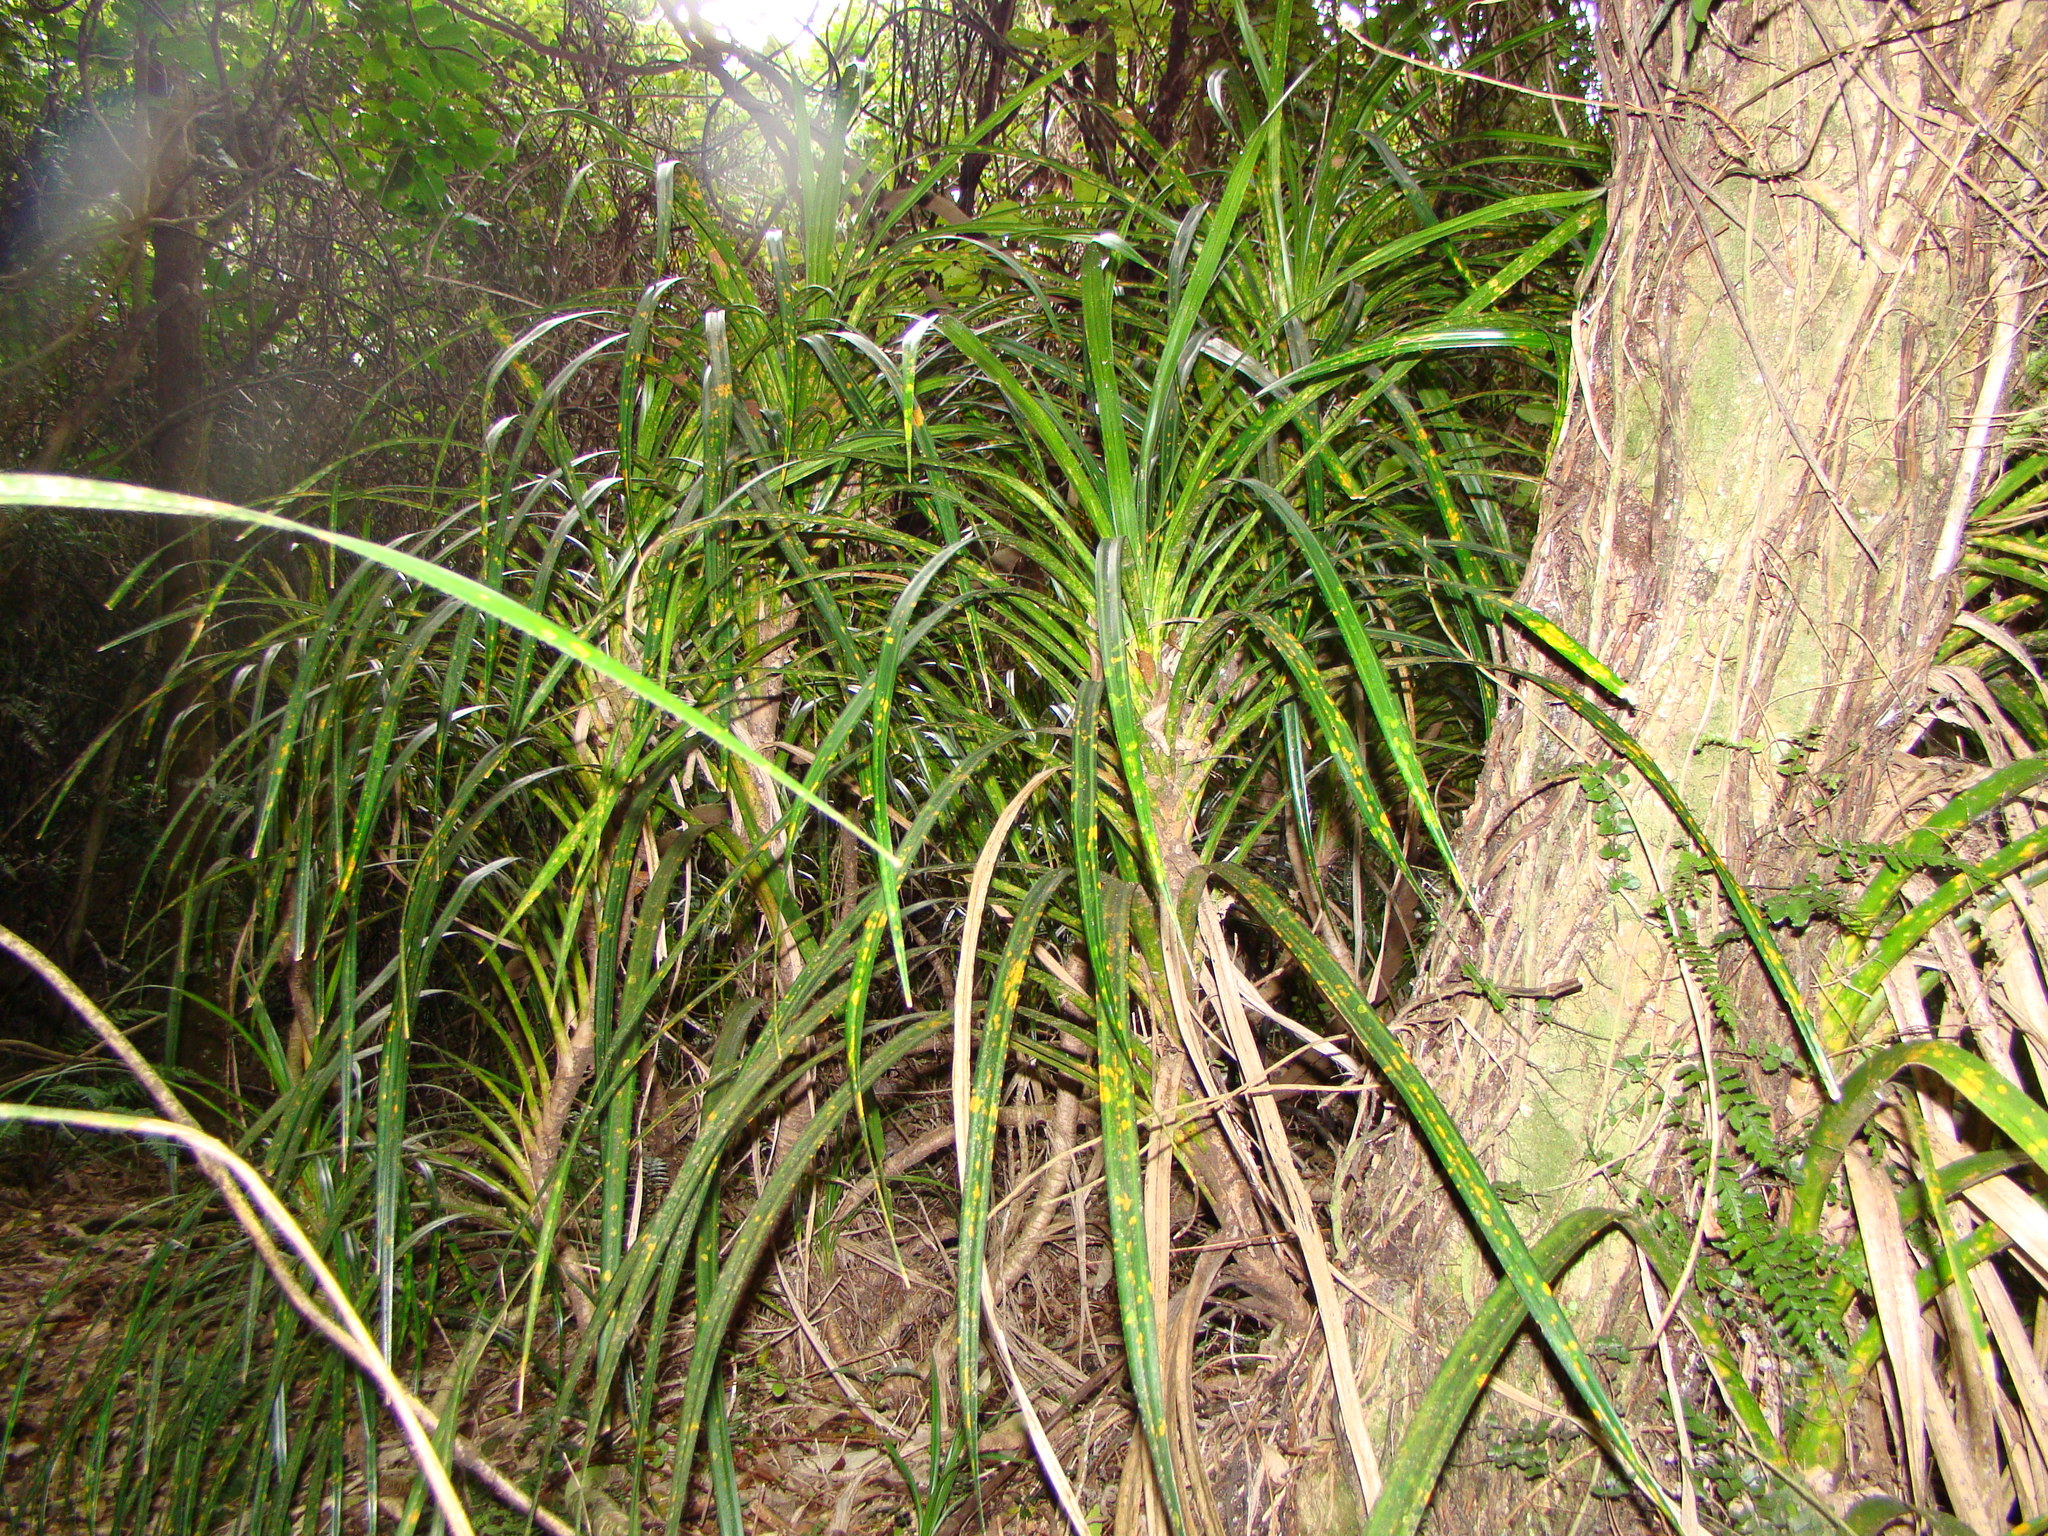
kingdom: Plantae
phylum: Tracheophyta
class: Liliopsida
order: Pandanales
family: Pandanaceae
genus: Freycinetia
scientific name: Freycinetia banksii
